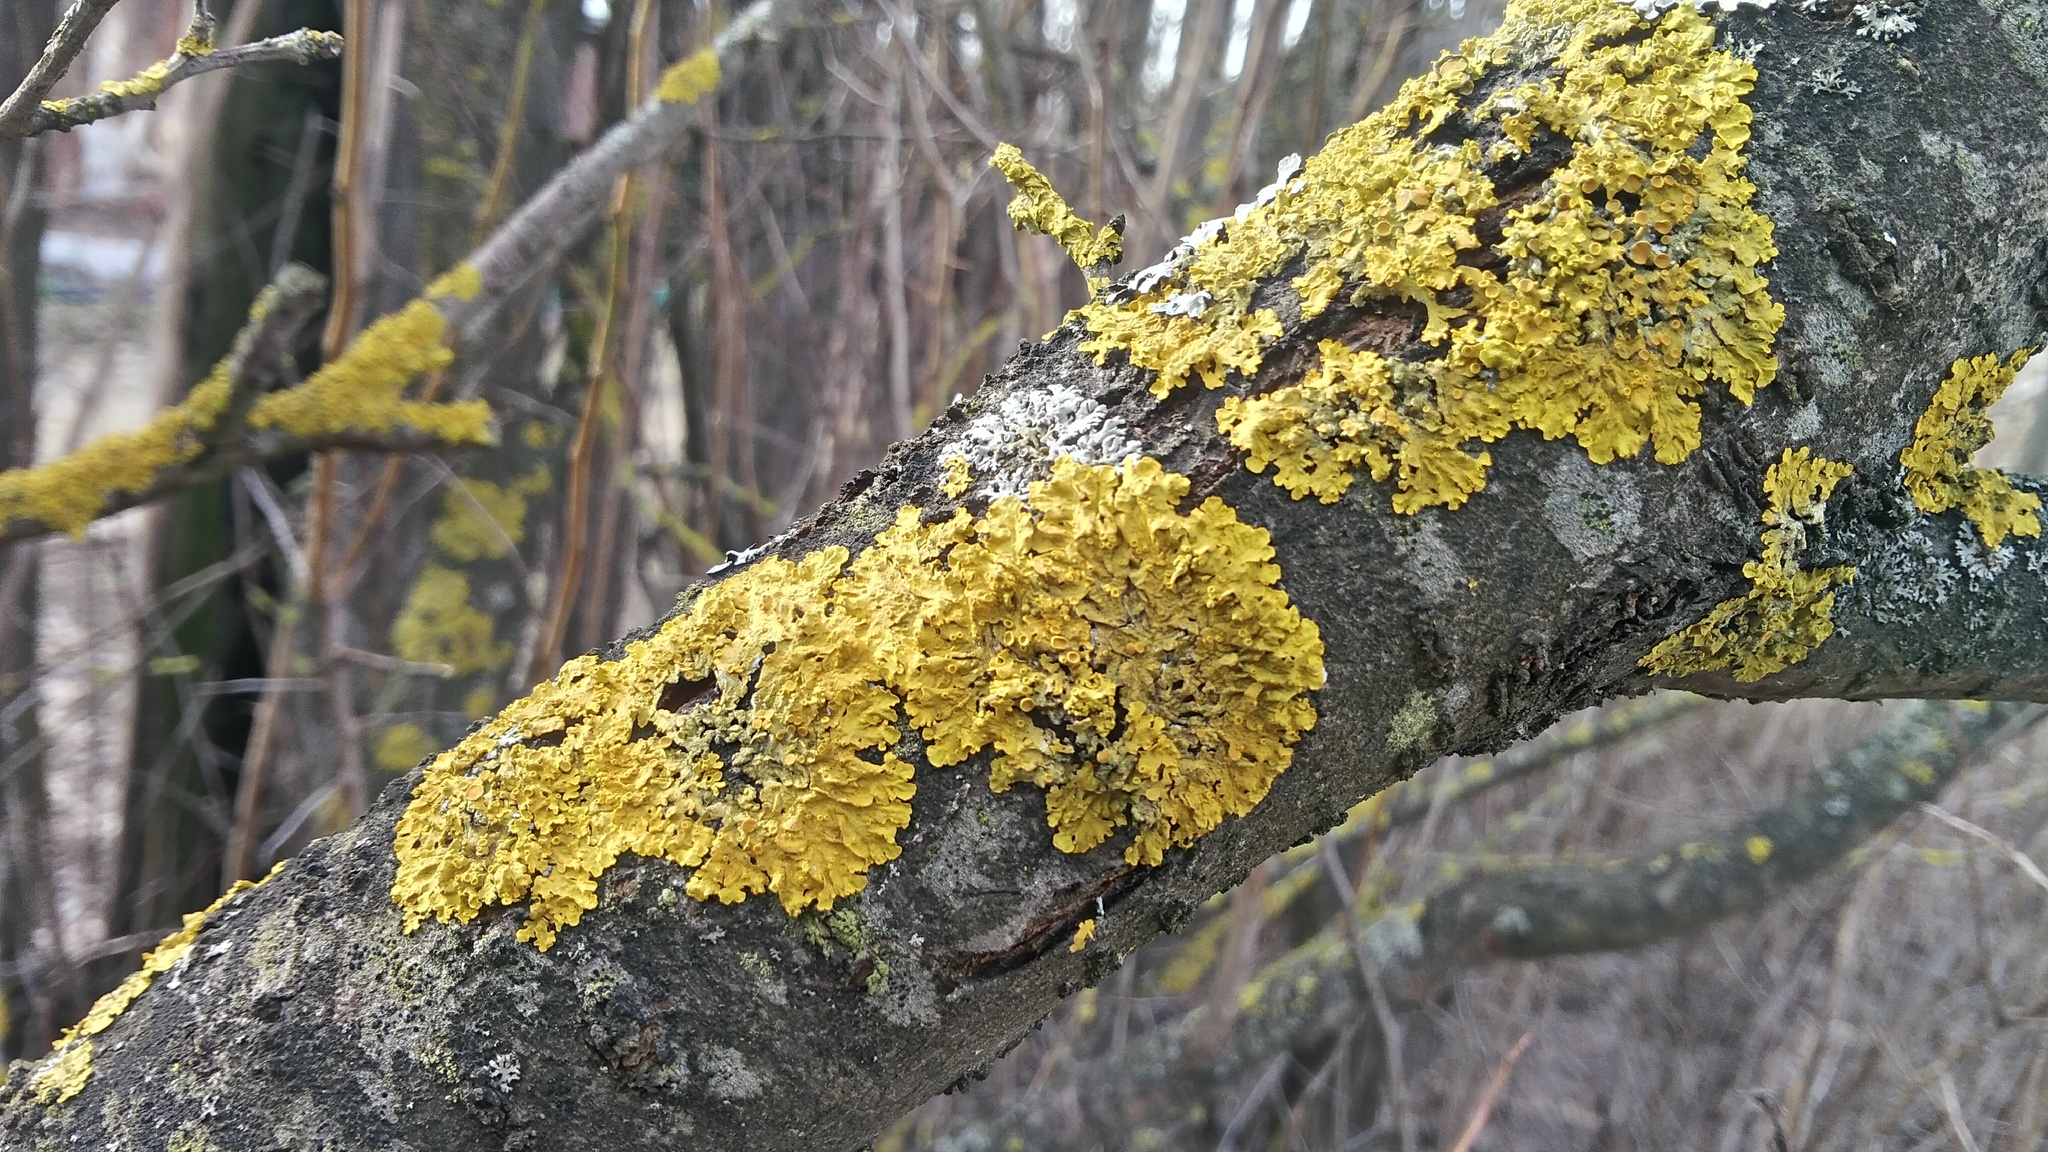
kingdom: Fungi
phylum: Ascomycota
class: Lecanoromycetes
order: Teloschistales
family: Teloschistaceae
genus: Xanthoria
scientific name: Xanthoria parietina
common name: Common orange lichen
